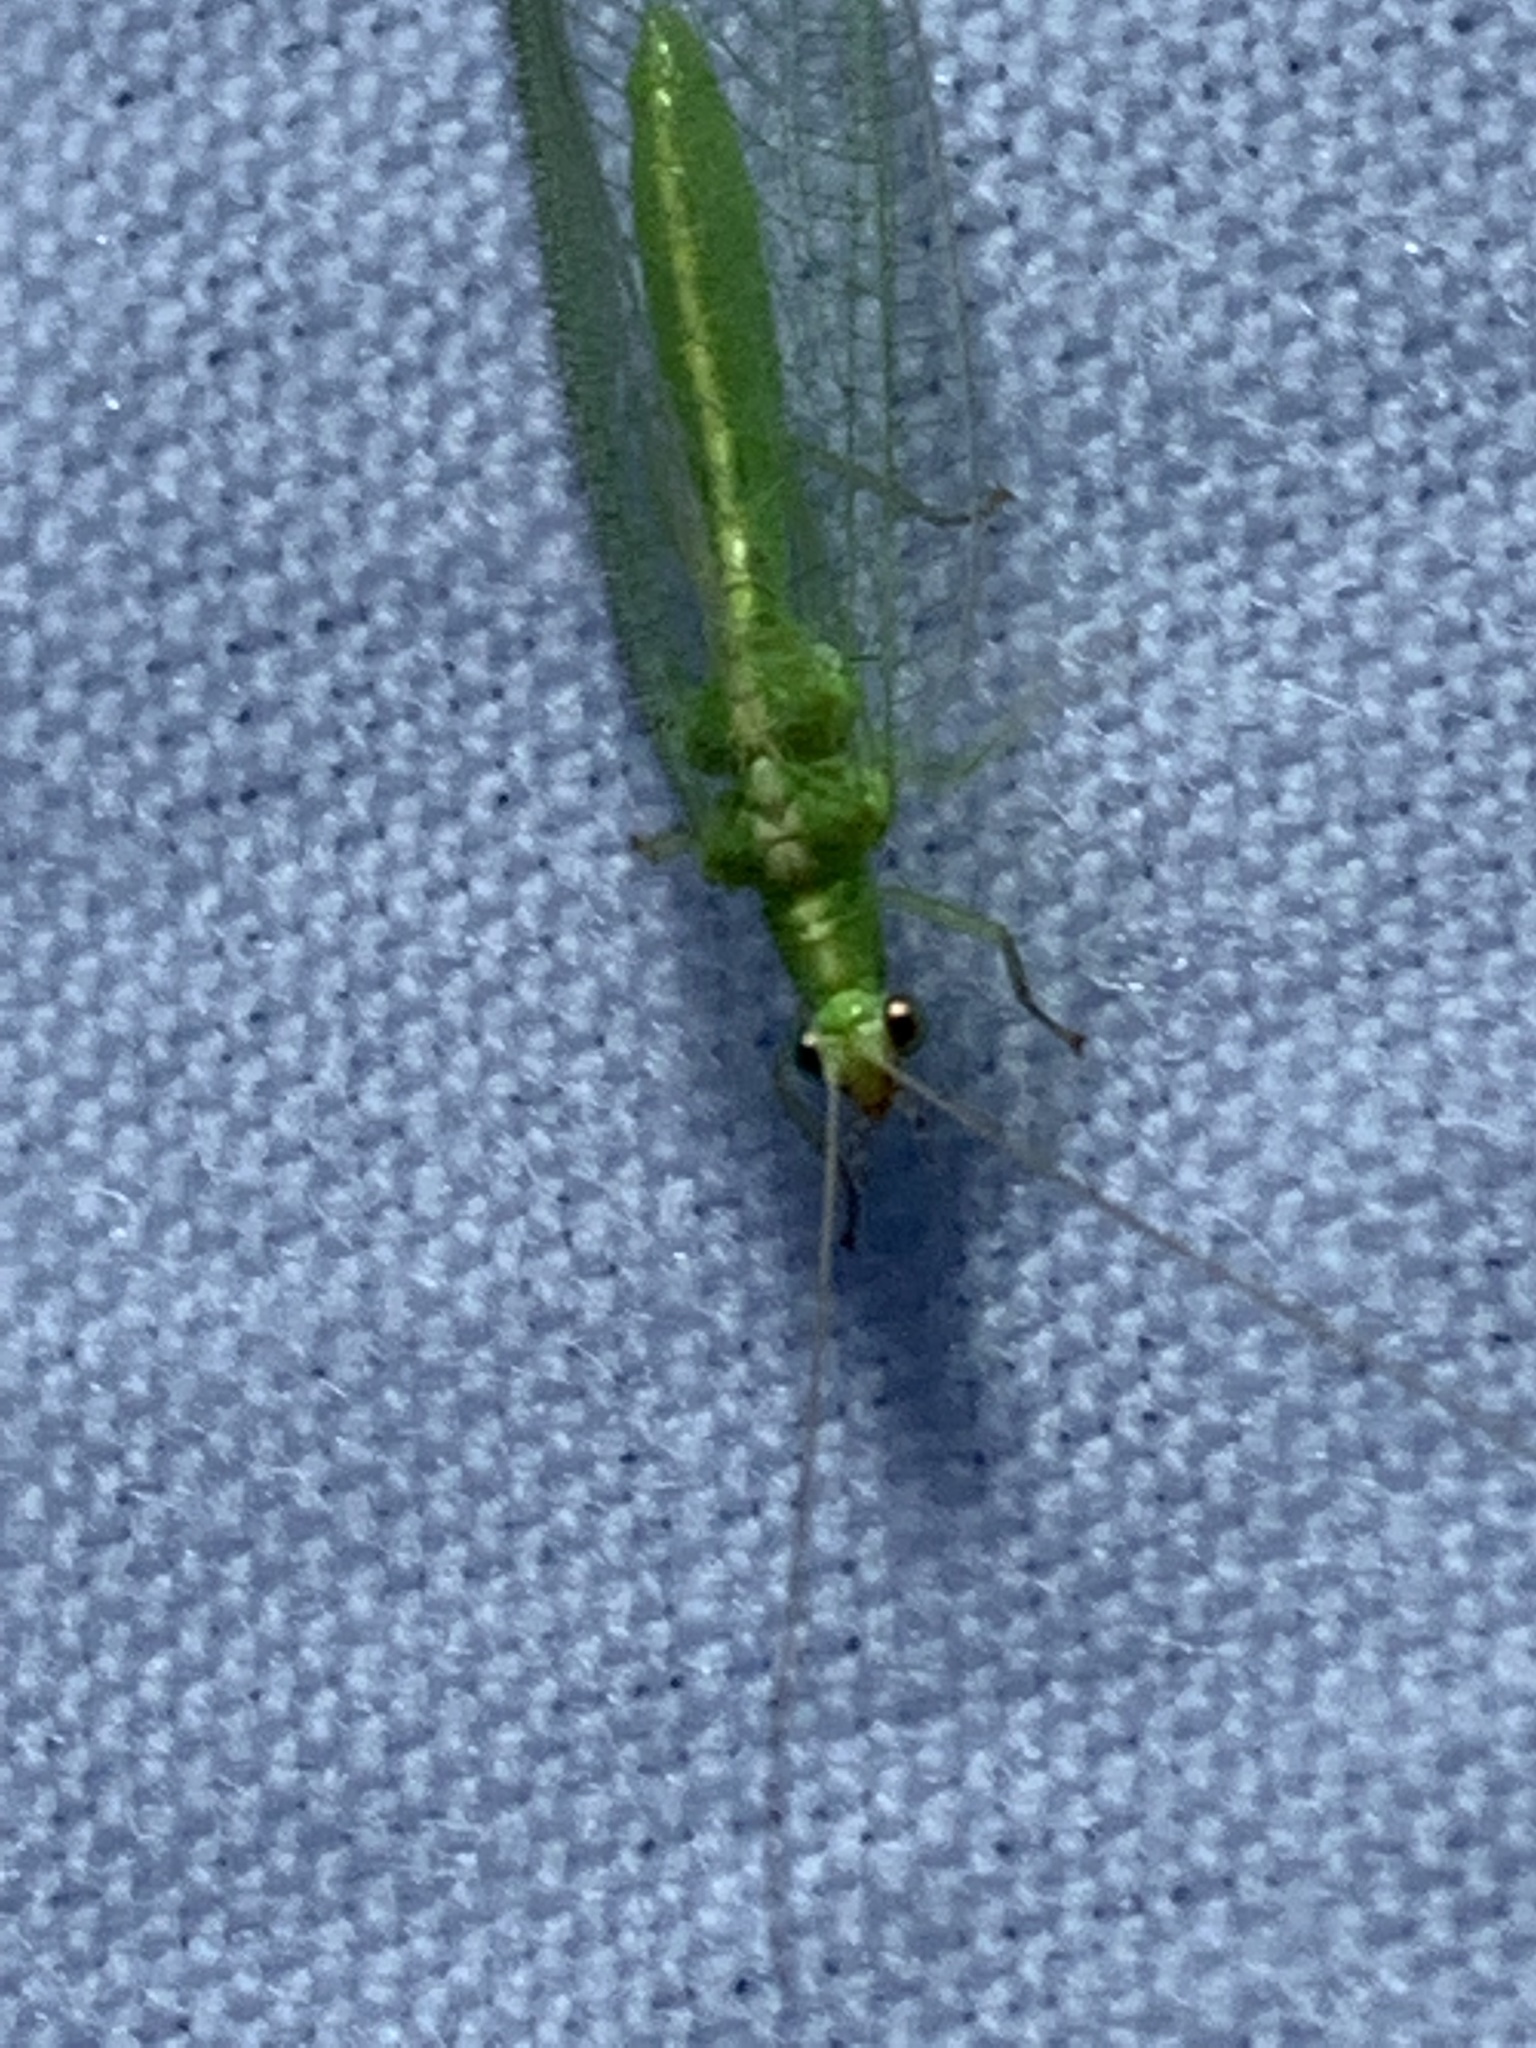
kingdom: Animalia
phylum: Arthropoda
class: Insecta
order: Neuroptera
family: Chrysopidae
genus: Chrysoperla
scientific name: Chrysoperla
